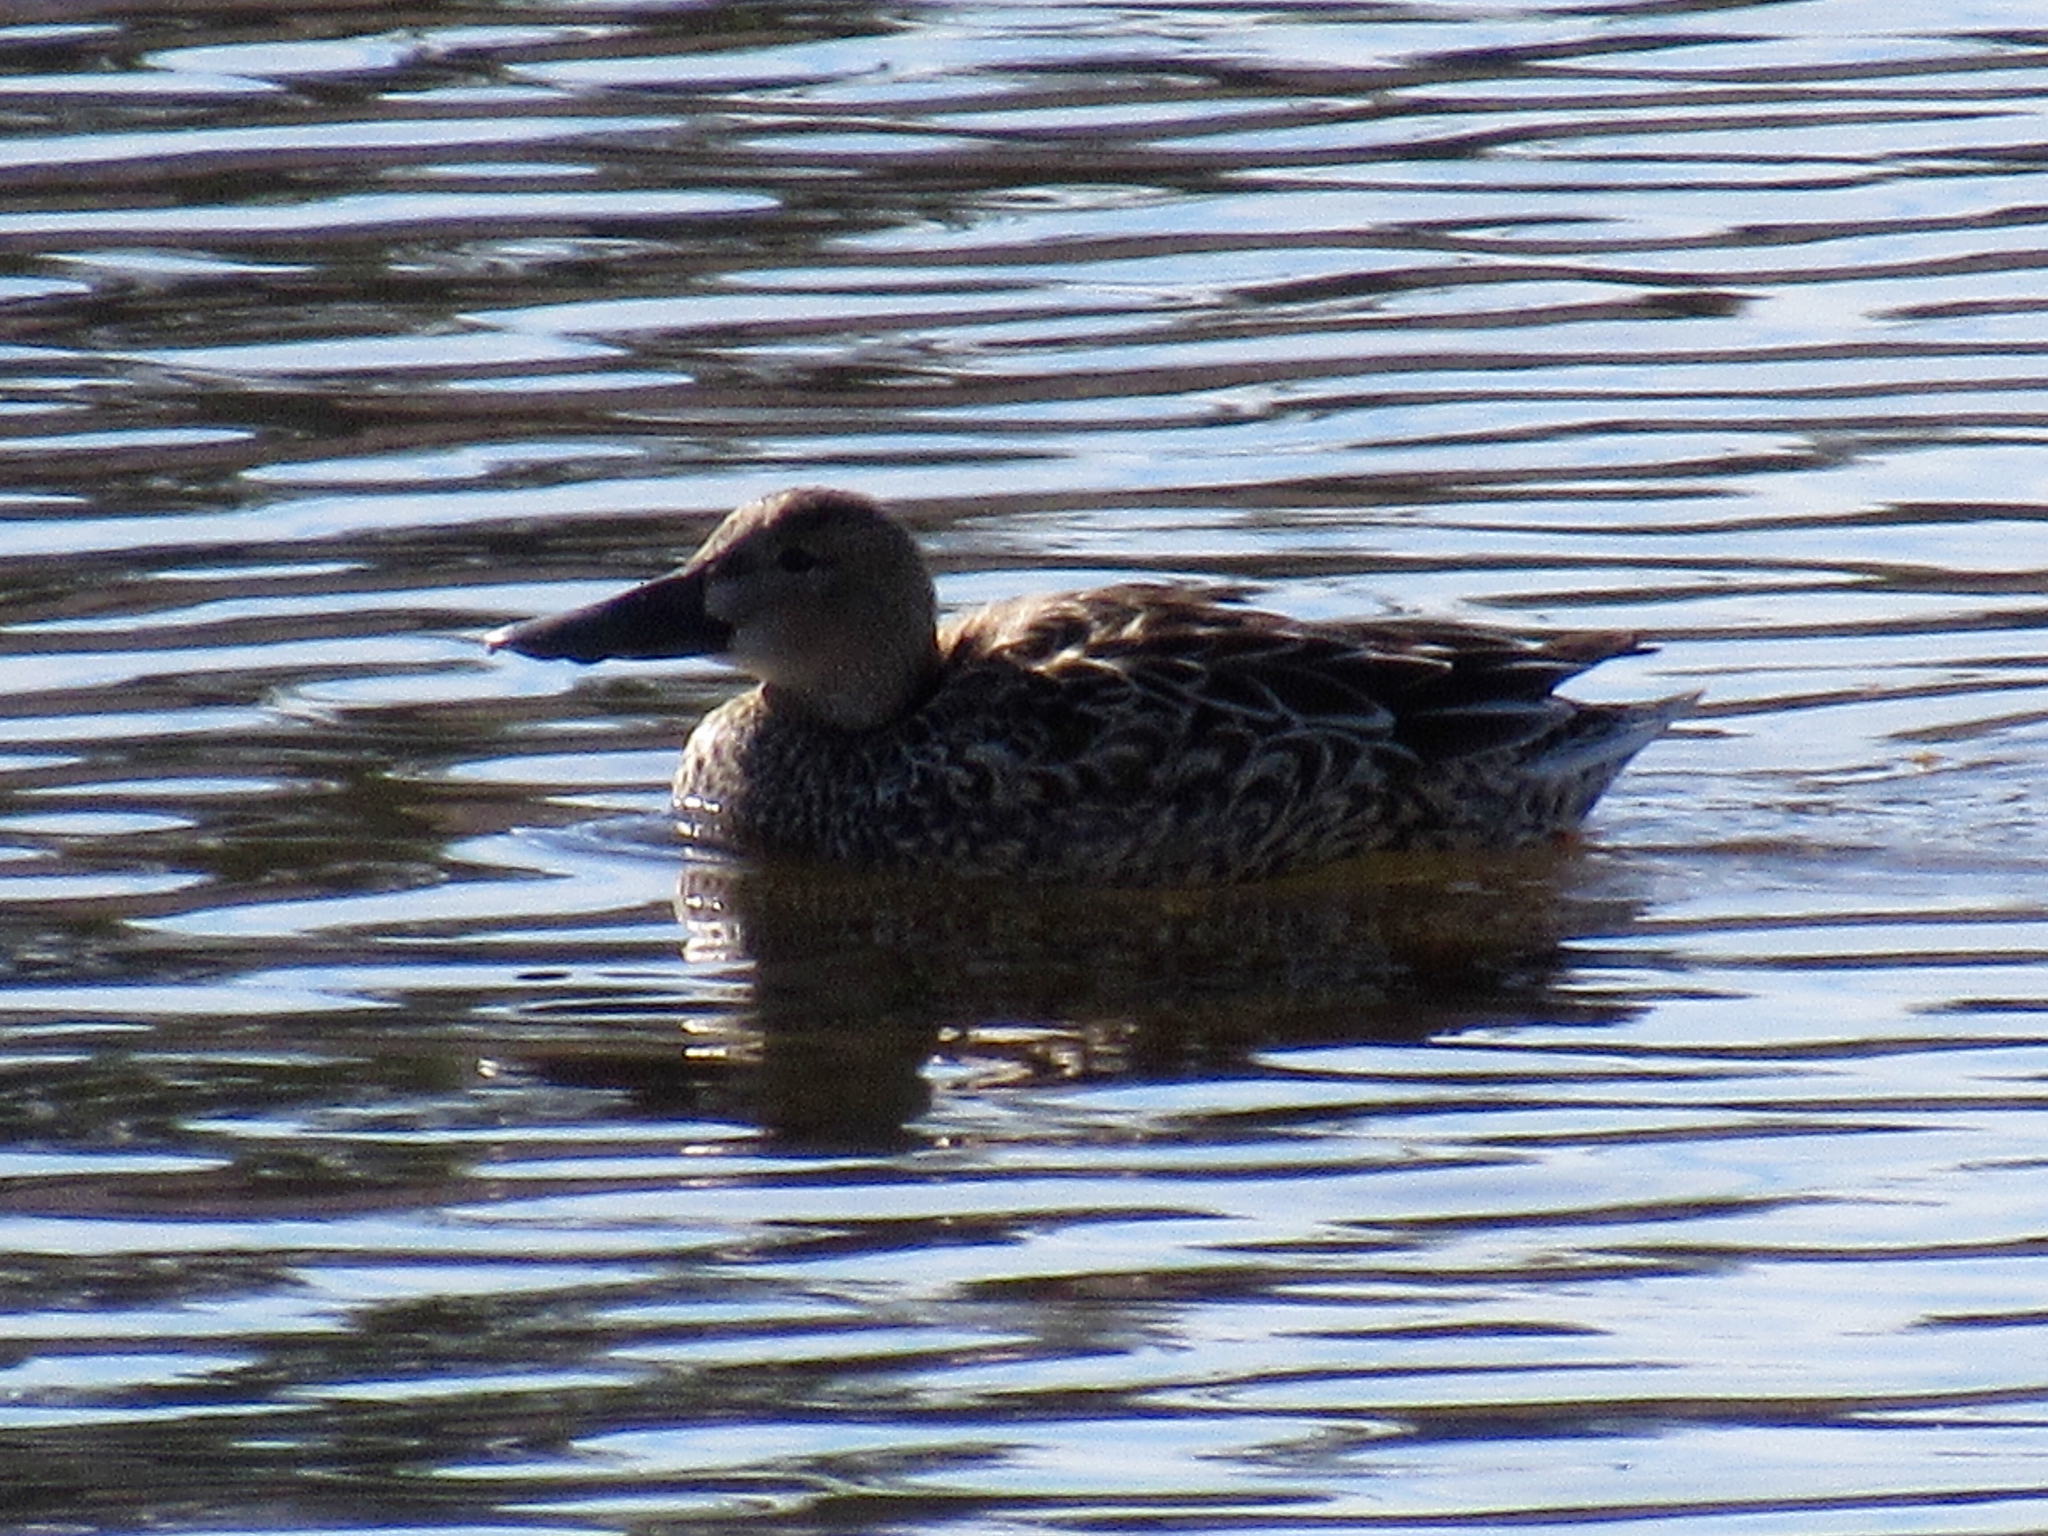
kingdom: Animalia
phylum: Chordata
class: Aves
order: Anseriformes
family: Anatidae
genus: Spatula
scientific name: Spatula clypeata
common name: Northern shoveler
